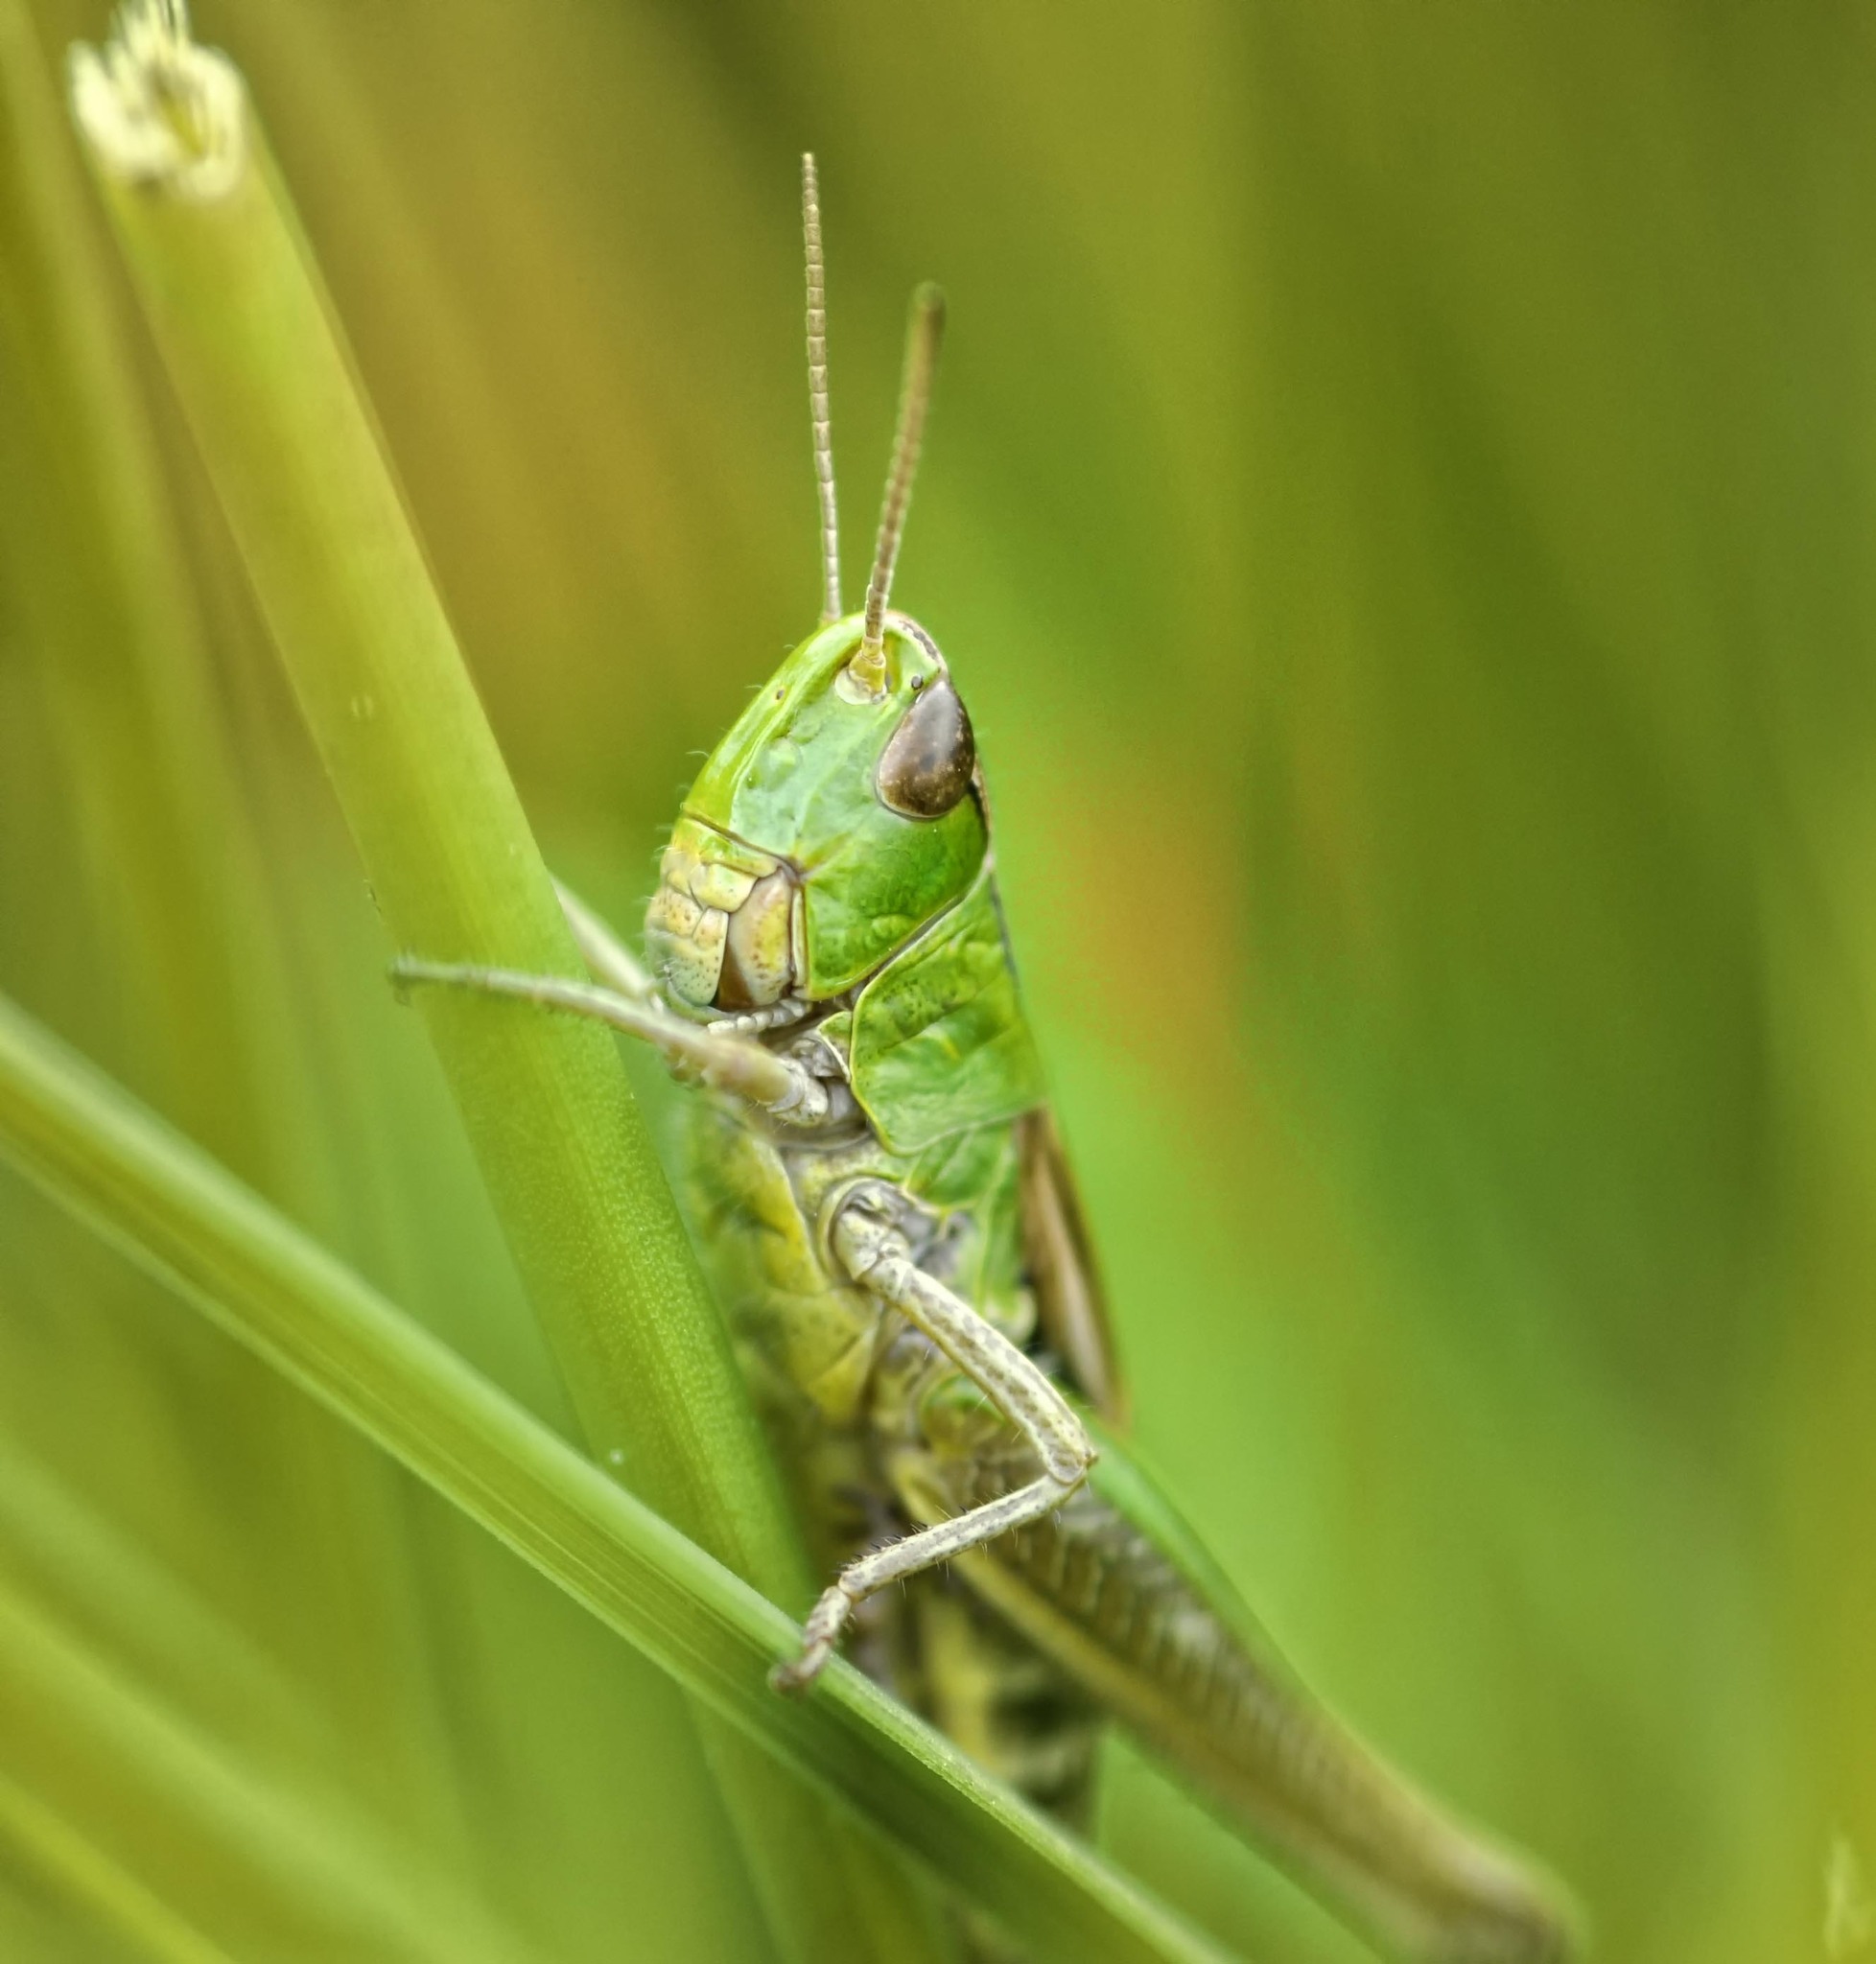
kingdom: Animalia
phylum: Arthropoda
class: Insecta
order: Orthoptera
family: Acrididae
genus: Pseudochorthippus
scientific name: Pseudochorthippus parallelus
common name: Meadow grasshopper
